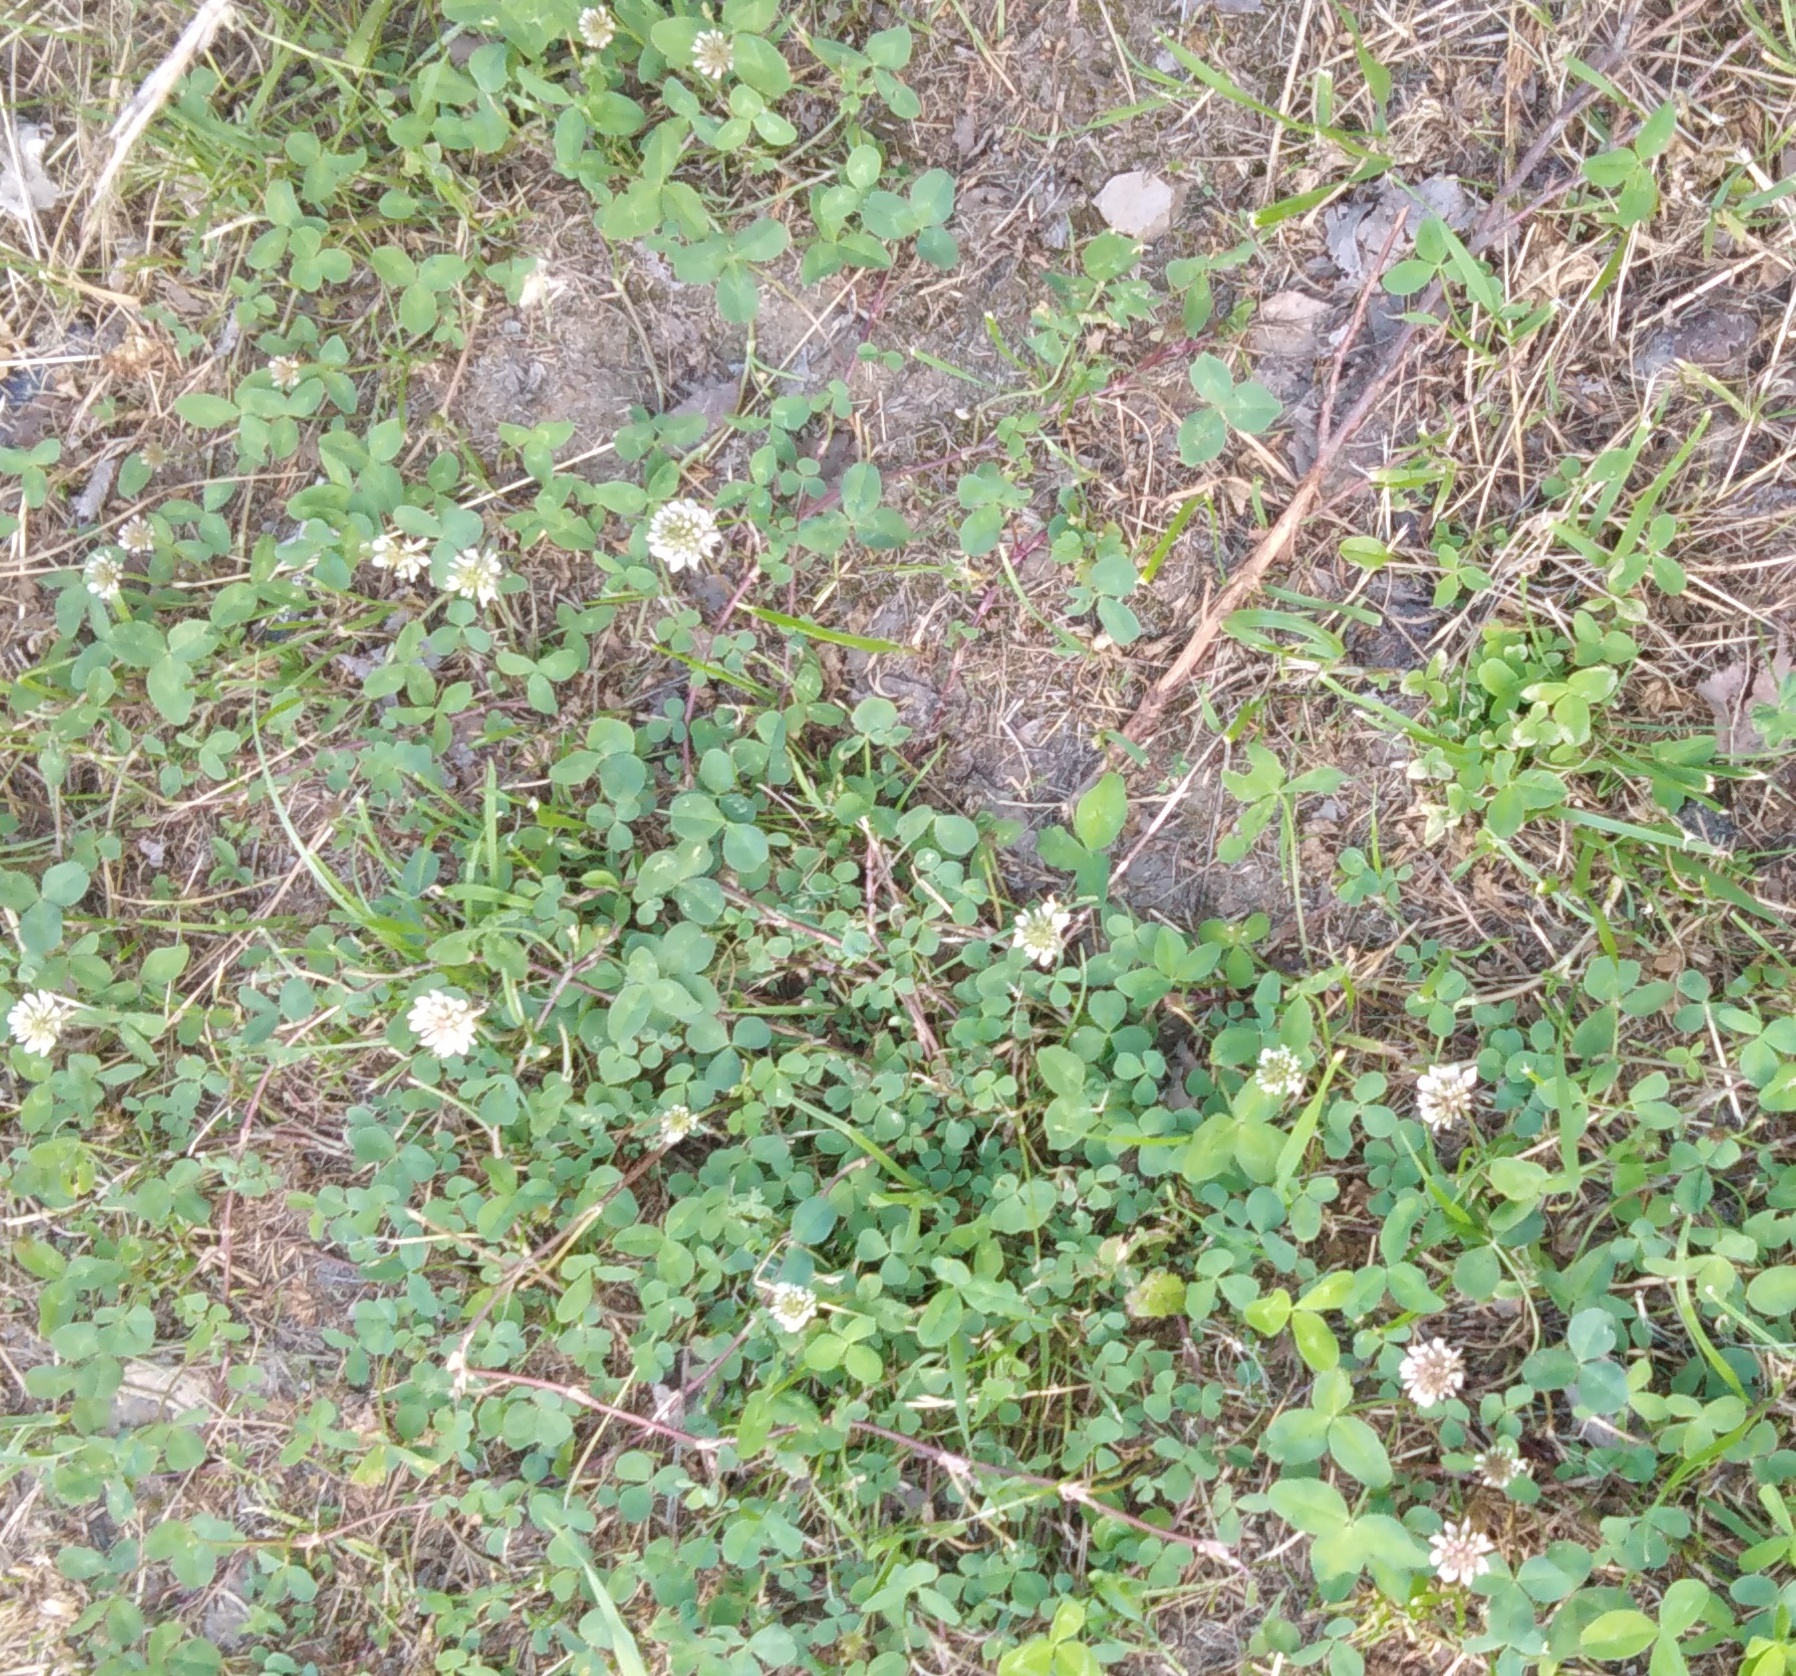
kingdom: Plantae
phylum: Tracheophyta
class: Magnoliopsida
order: Fabales
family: Fabaceae
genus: Trifolium
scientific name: Trifolium repens
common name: White clover
